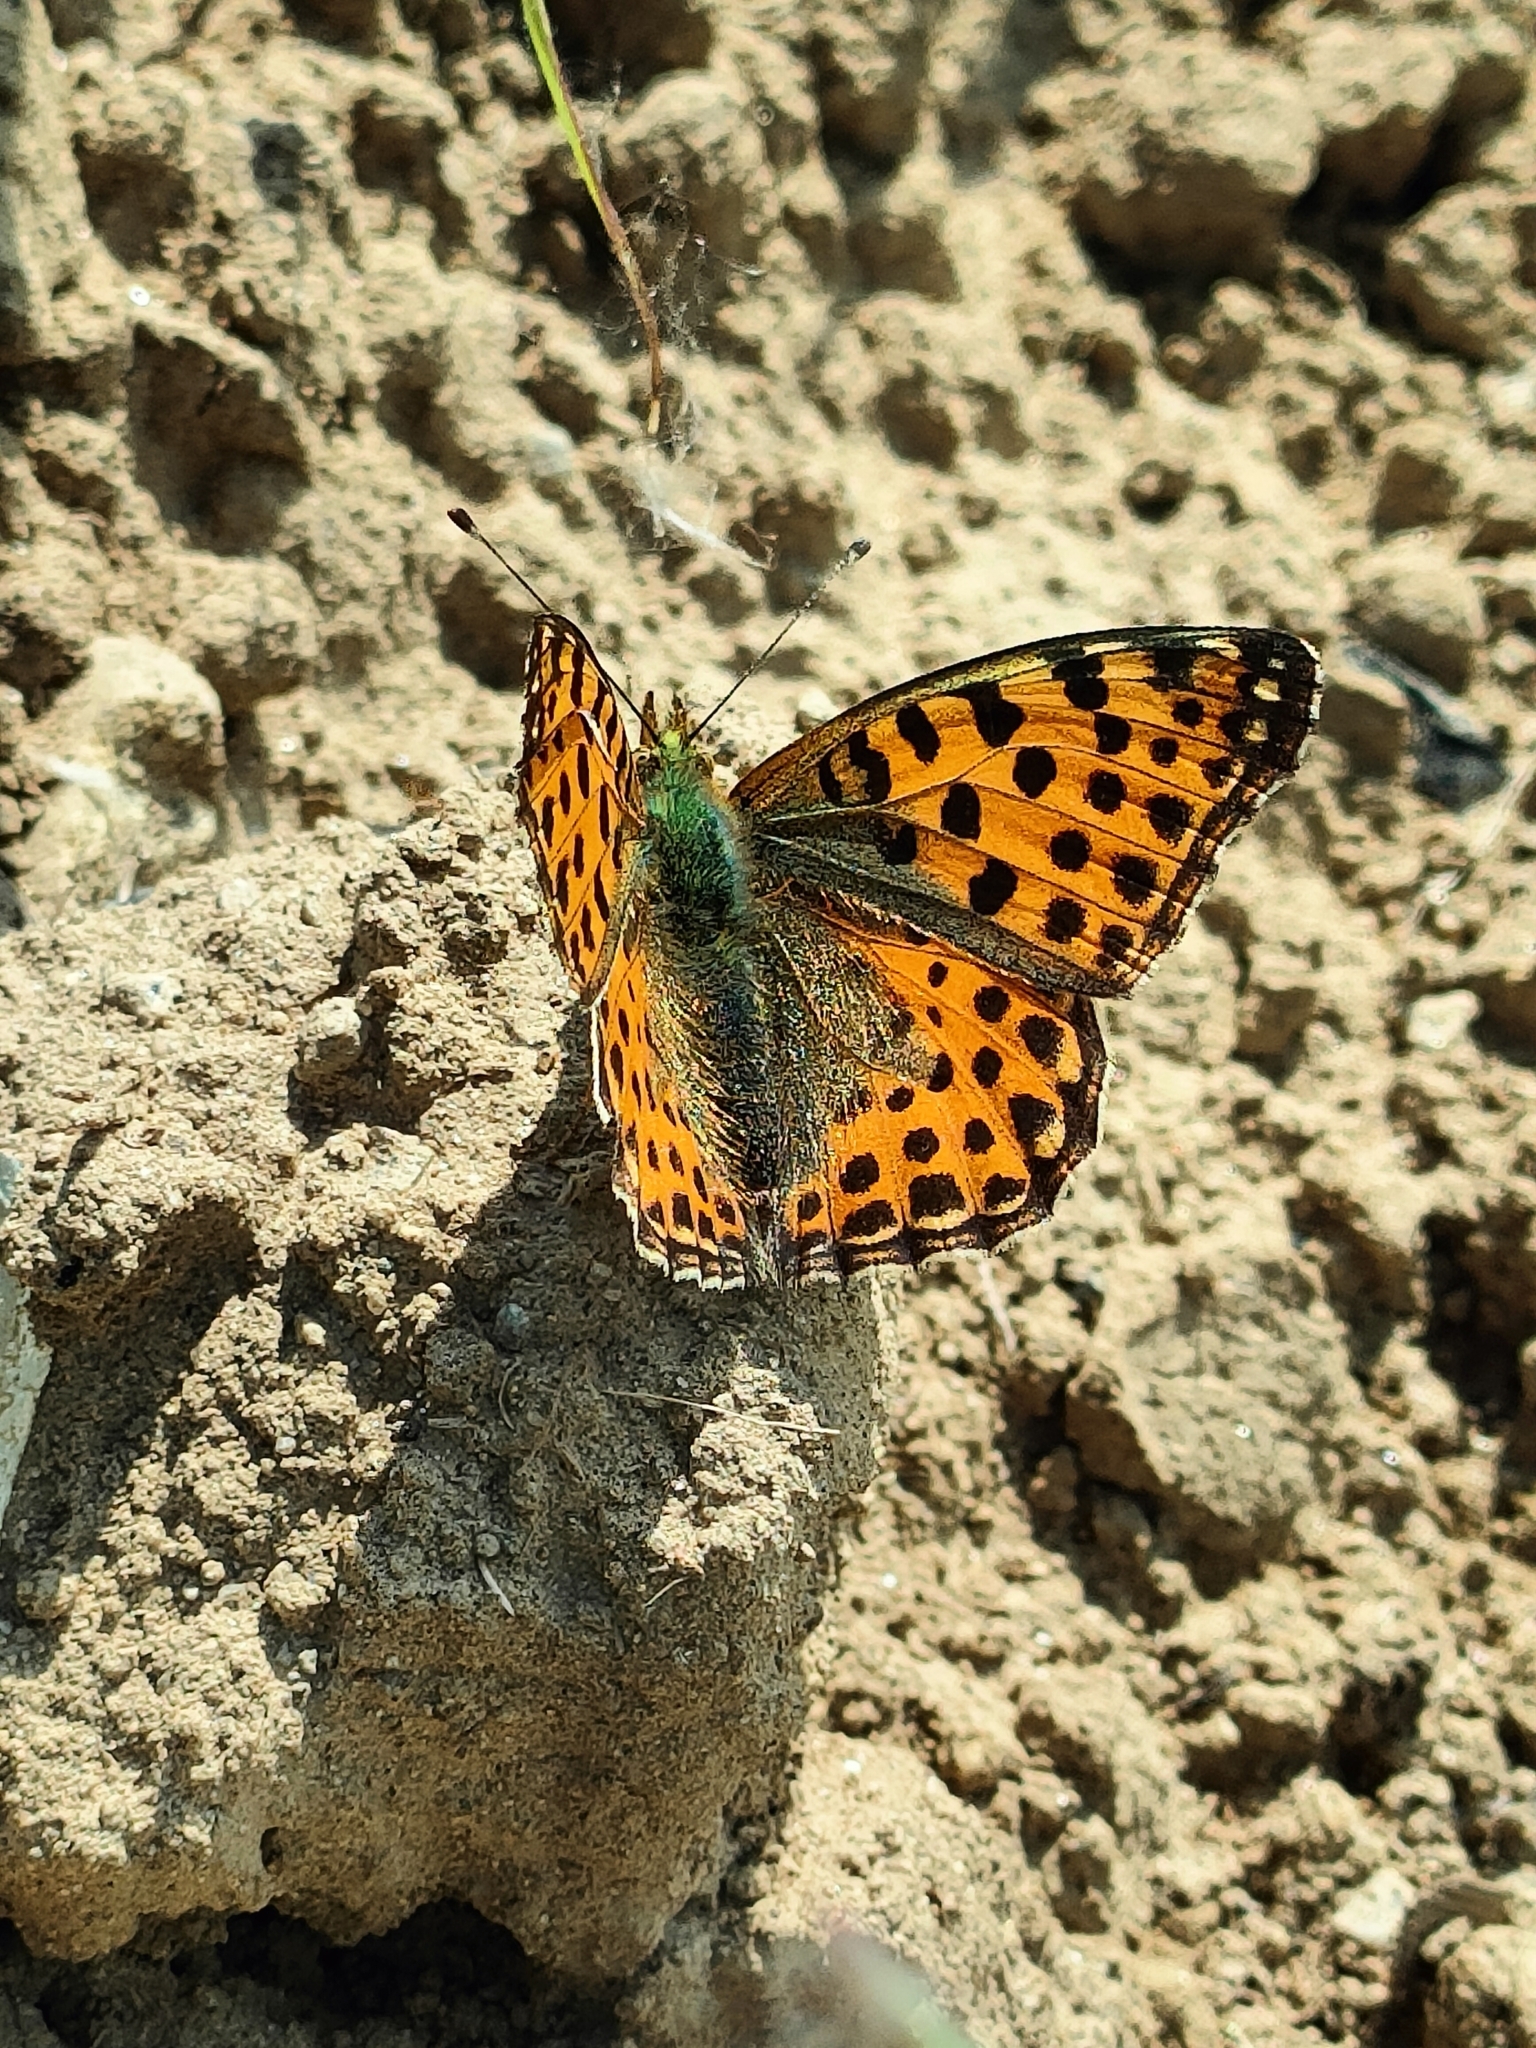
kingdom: Animalia
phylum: Arthropoda
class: Insecta
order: Lepidoptera
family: Nymphalidae
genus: Issoria
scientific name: Issoria lathonia
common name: Queen of spain fritillary
